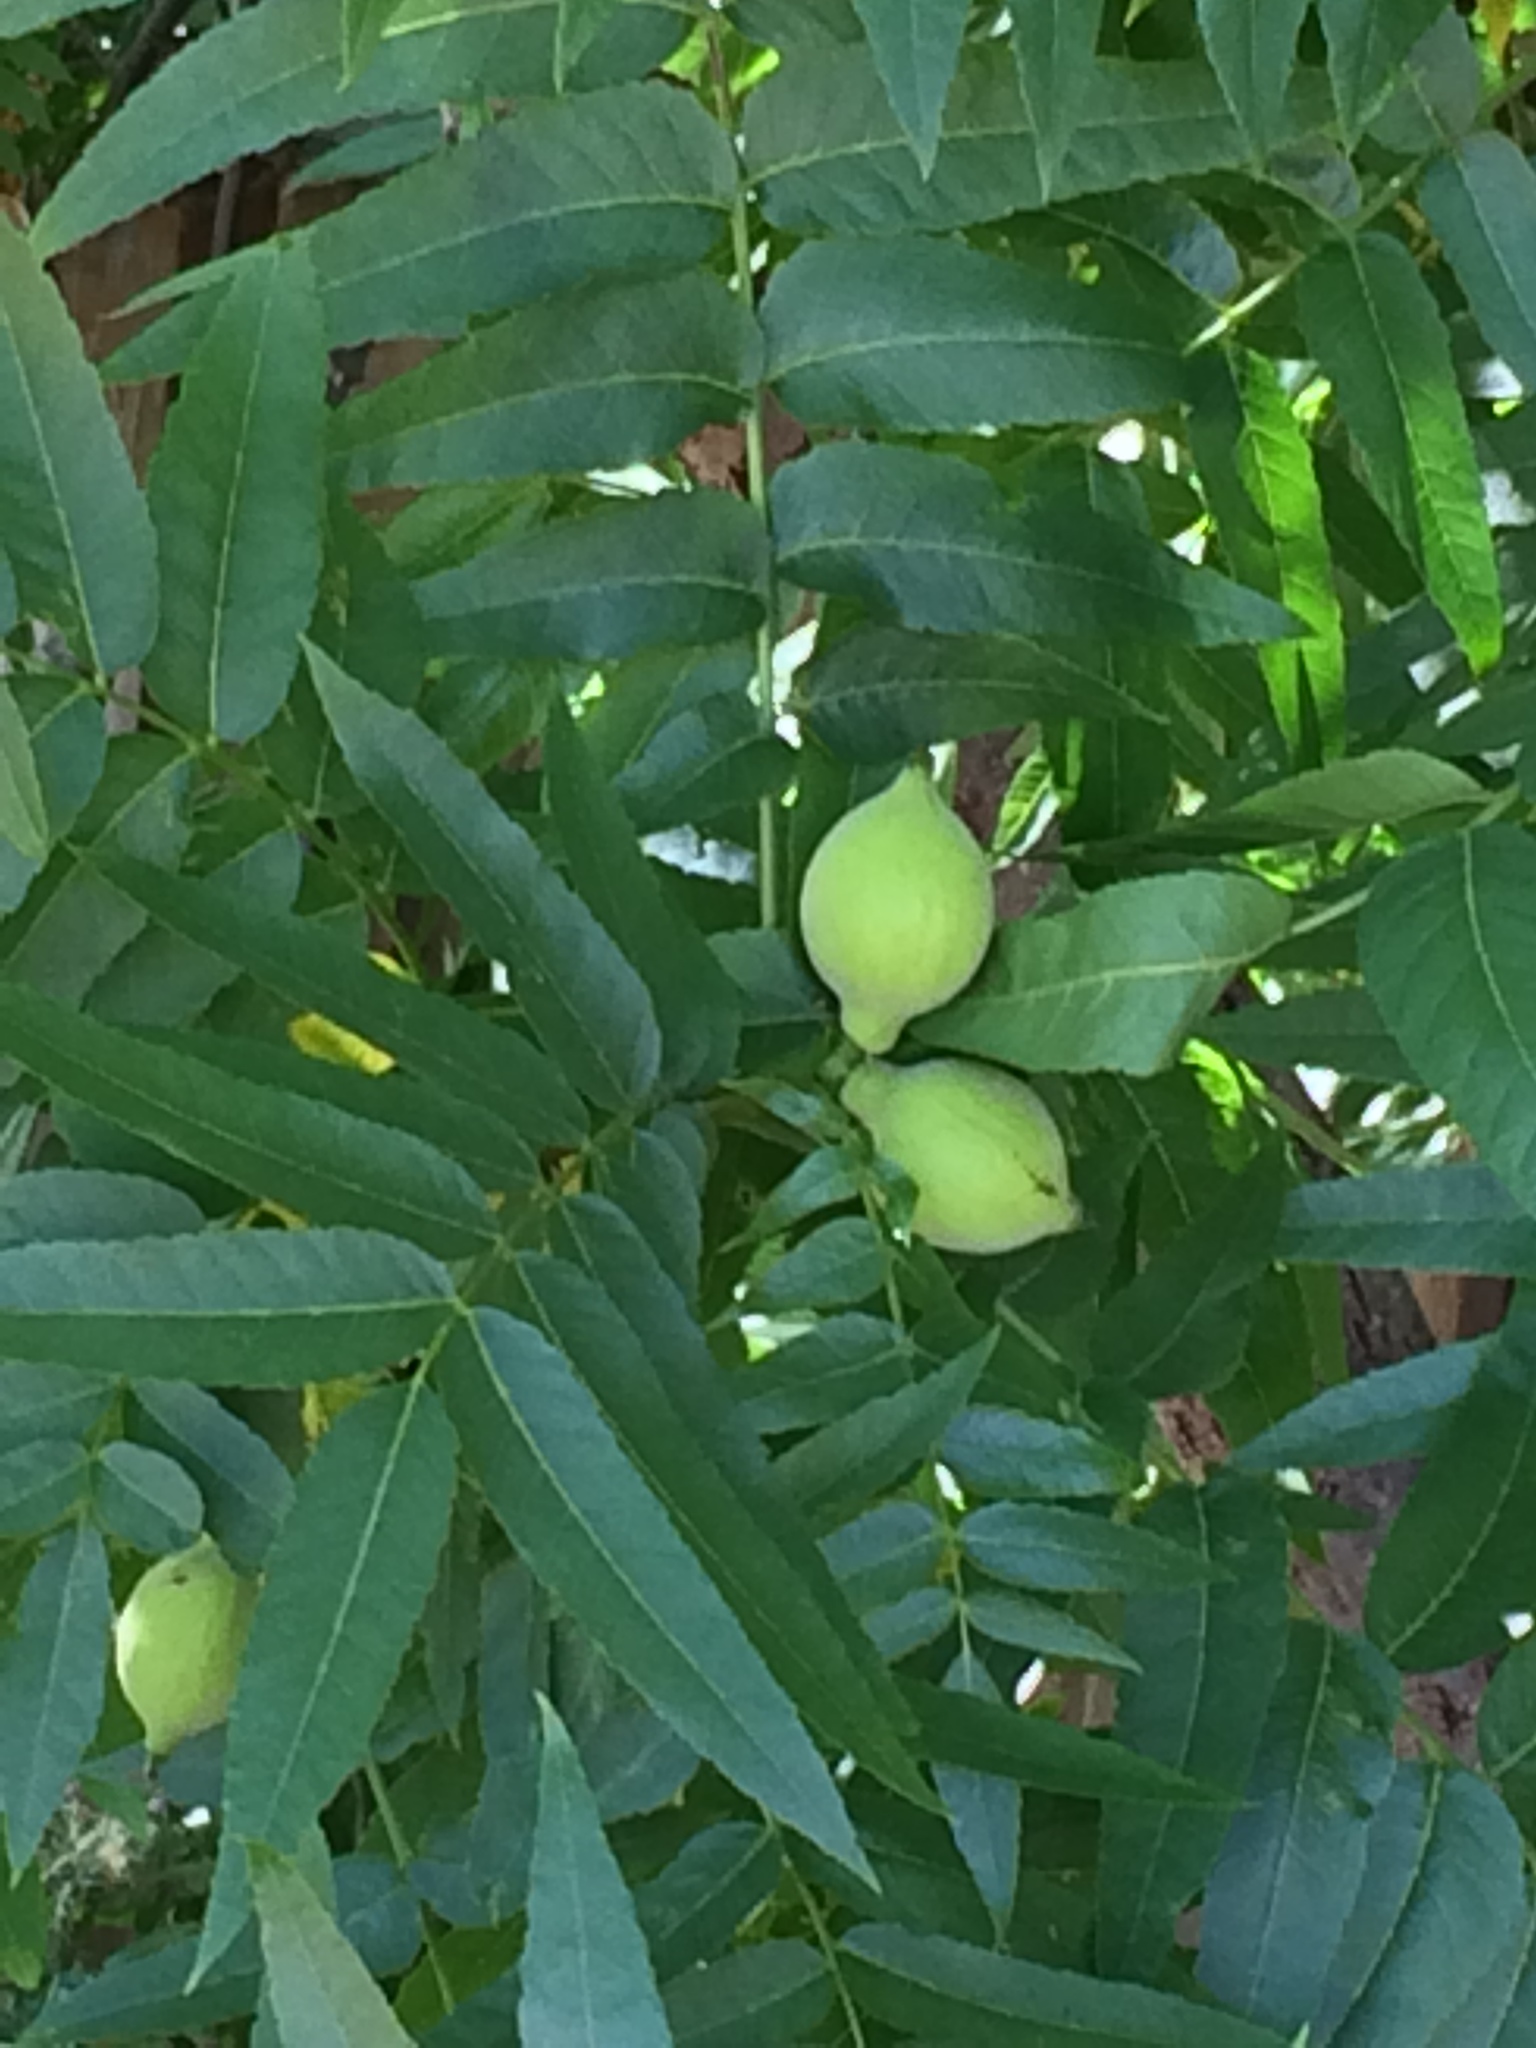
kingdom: Plantae
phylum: Tracheophyta
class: Magnoliopsida
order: Fagales
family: Juglandaceae
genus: Juglans
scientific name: Juglans hindsii
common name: Northern california black walnut
